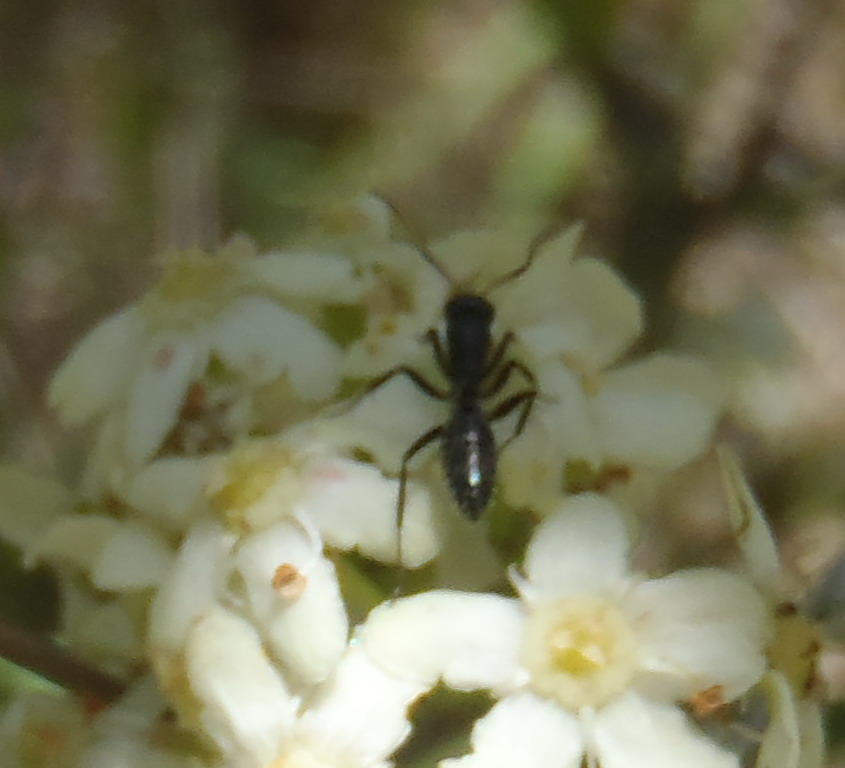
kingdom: Animalia
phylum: Arthropoda
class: Insecta
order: Hymenoptera
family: Formicidae
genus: Camponotus
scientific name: Camponotus niveosetosus
